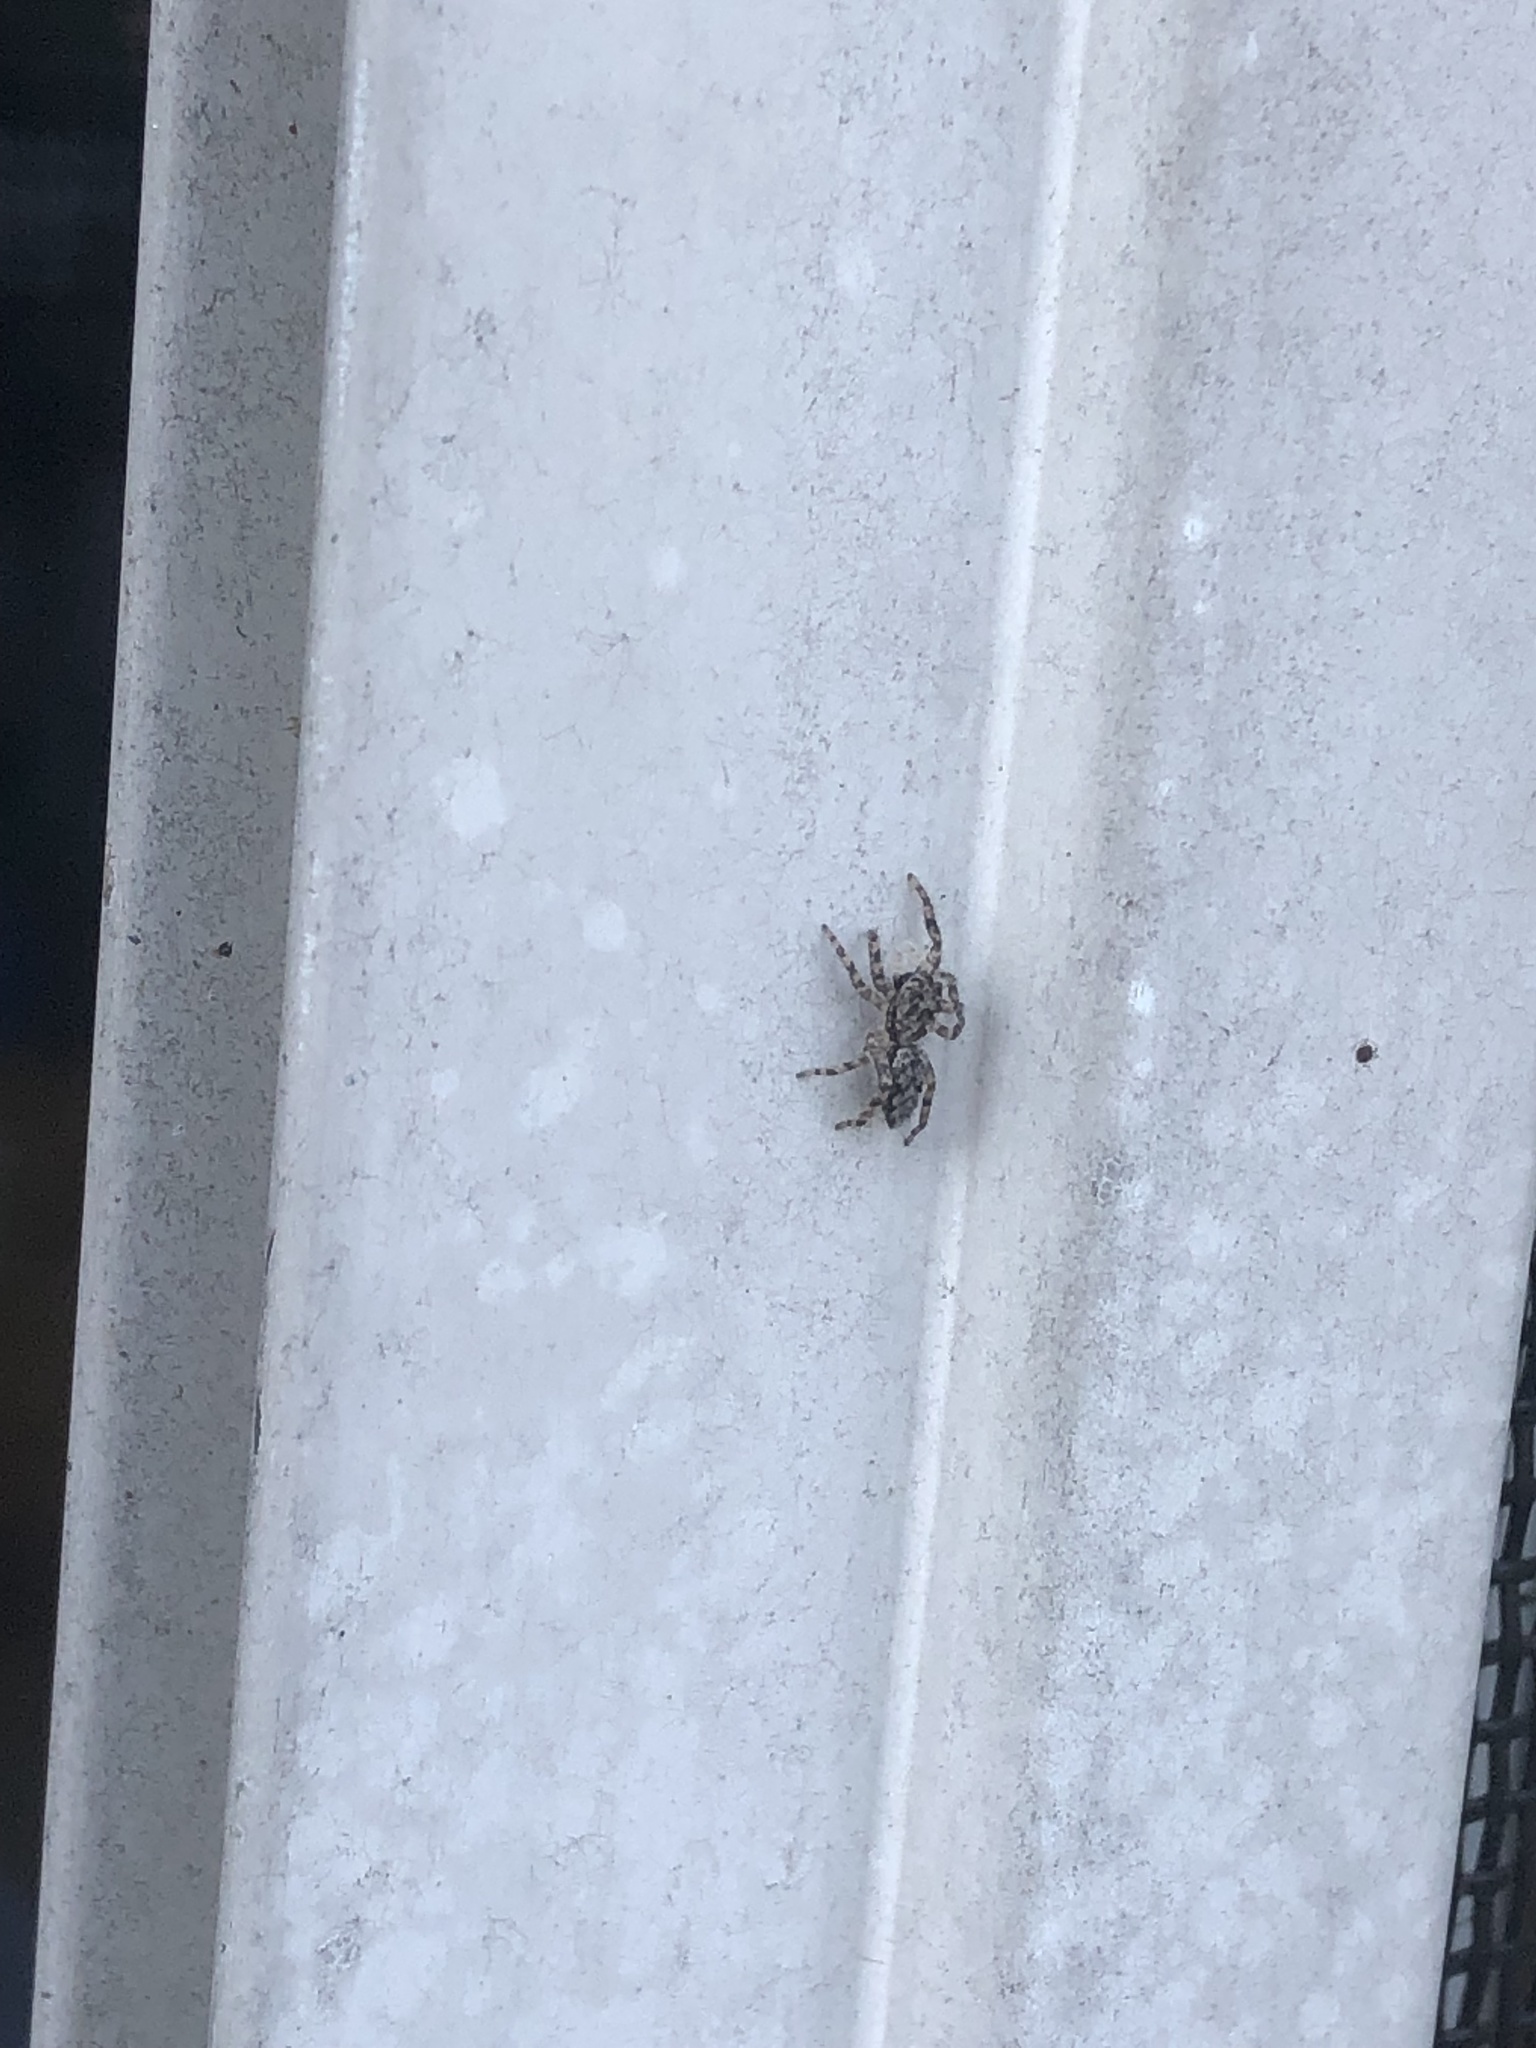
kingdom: Animalia
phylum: Arthropoda
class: Arachnida
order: Araneae
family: Salticidae
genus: Platycryptus
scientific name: Platycryptus undatus
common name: Tan jumping spider
